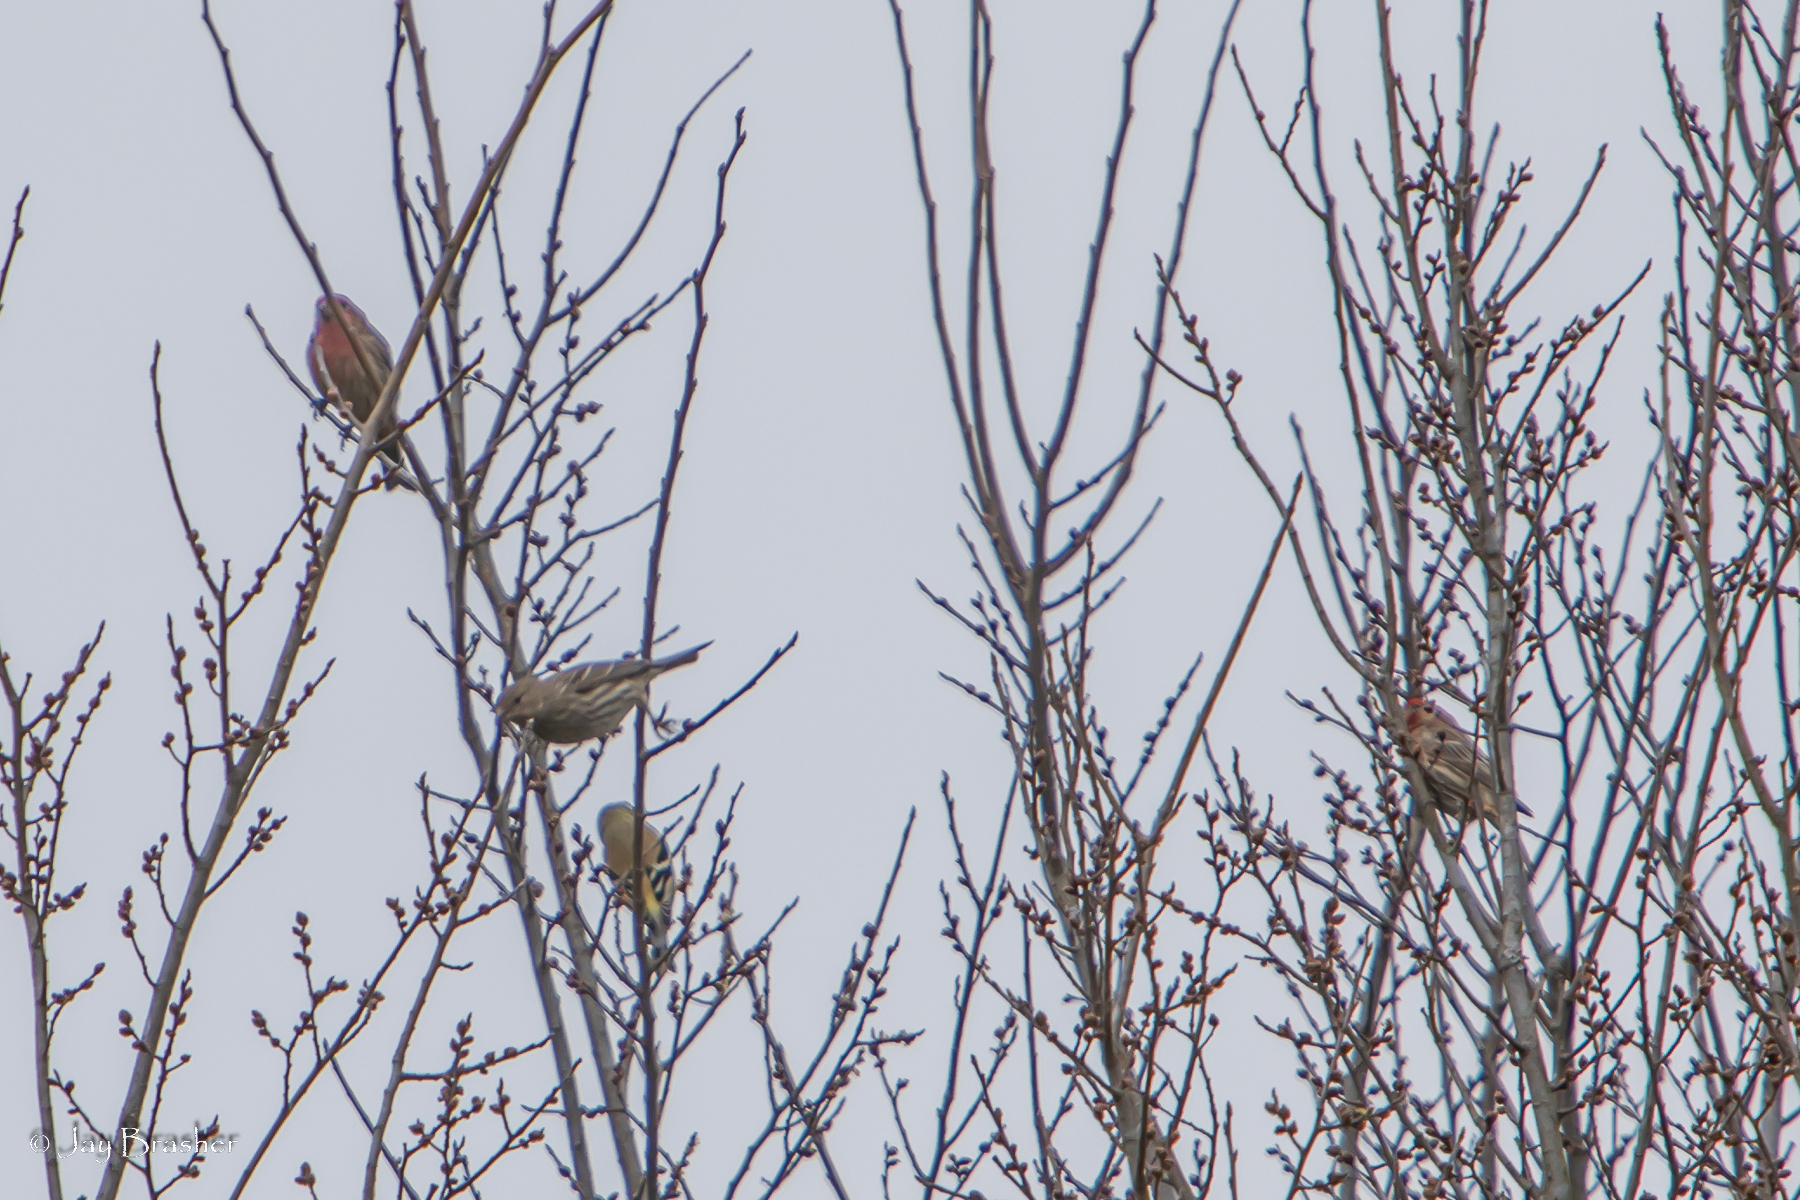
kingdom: Animalia
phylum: Chordata
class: Aves
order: Passeriformes
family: Fringillidae
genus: Spinus
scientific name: Spinus tristis
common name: American goldfinch
